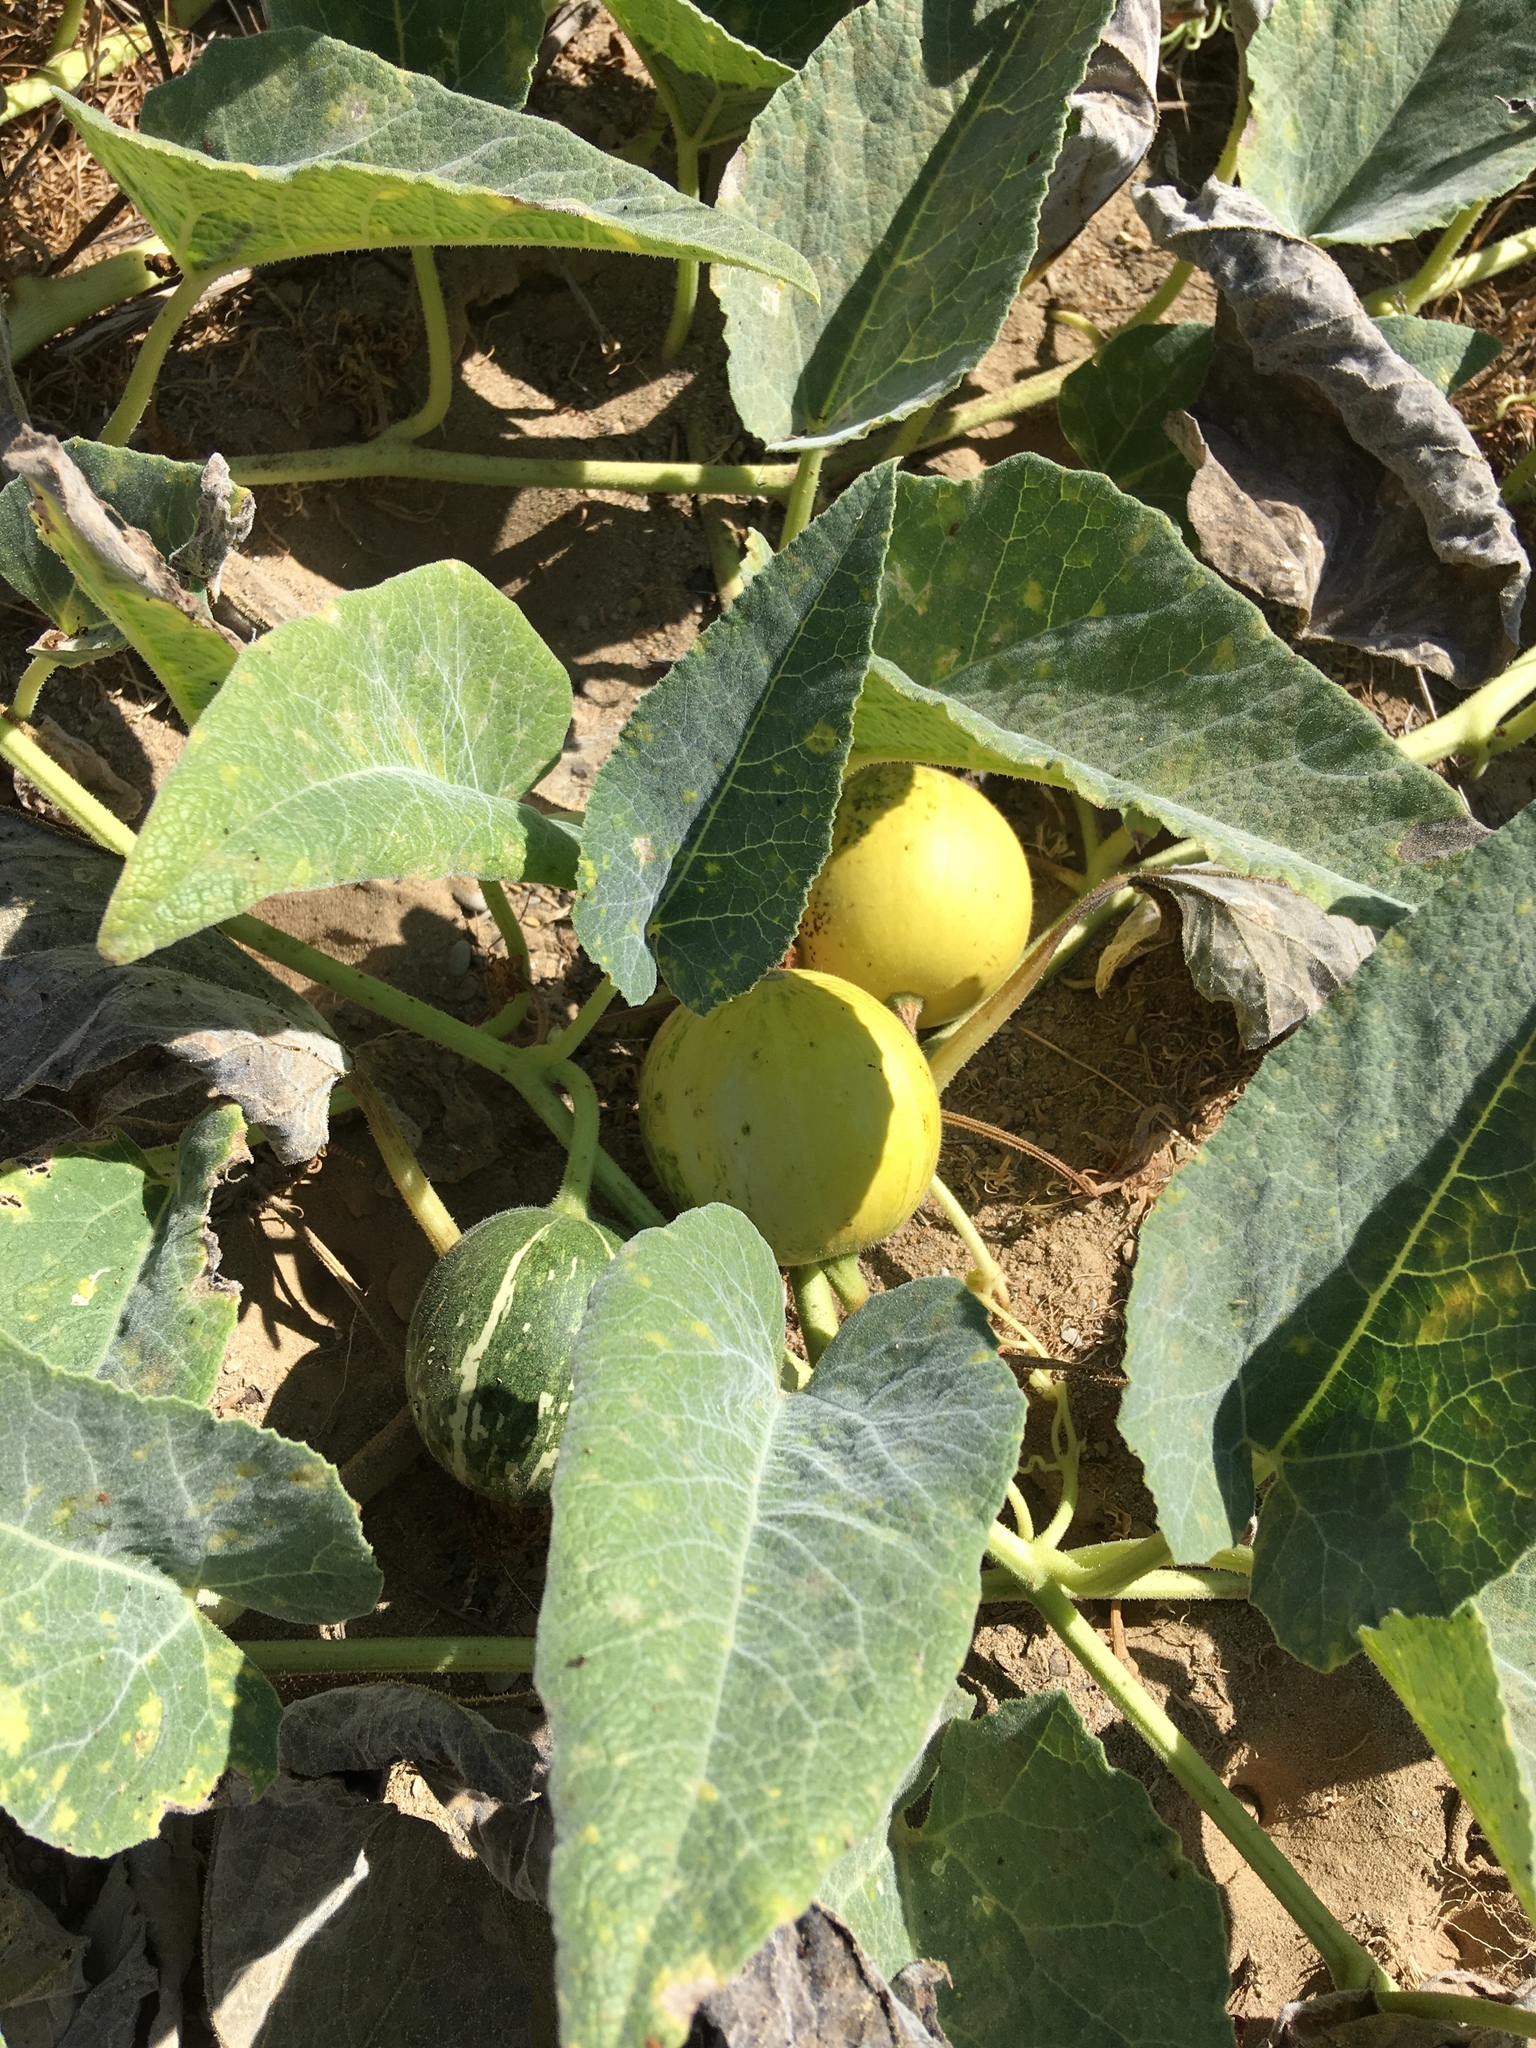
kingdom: Plantae
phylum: Tracheophyta
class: Magnoliopsida
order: Cucurbitales
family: Cucurbitaceae
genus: Cucurbita
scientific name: Cucurbita foetidissima
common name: Buffalo gourd
